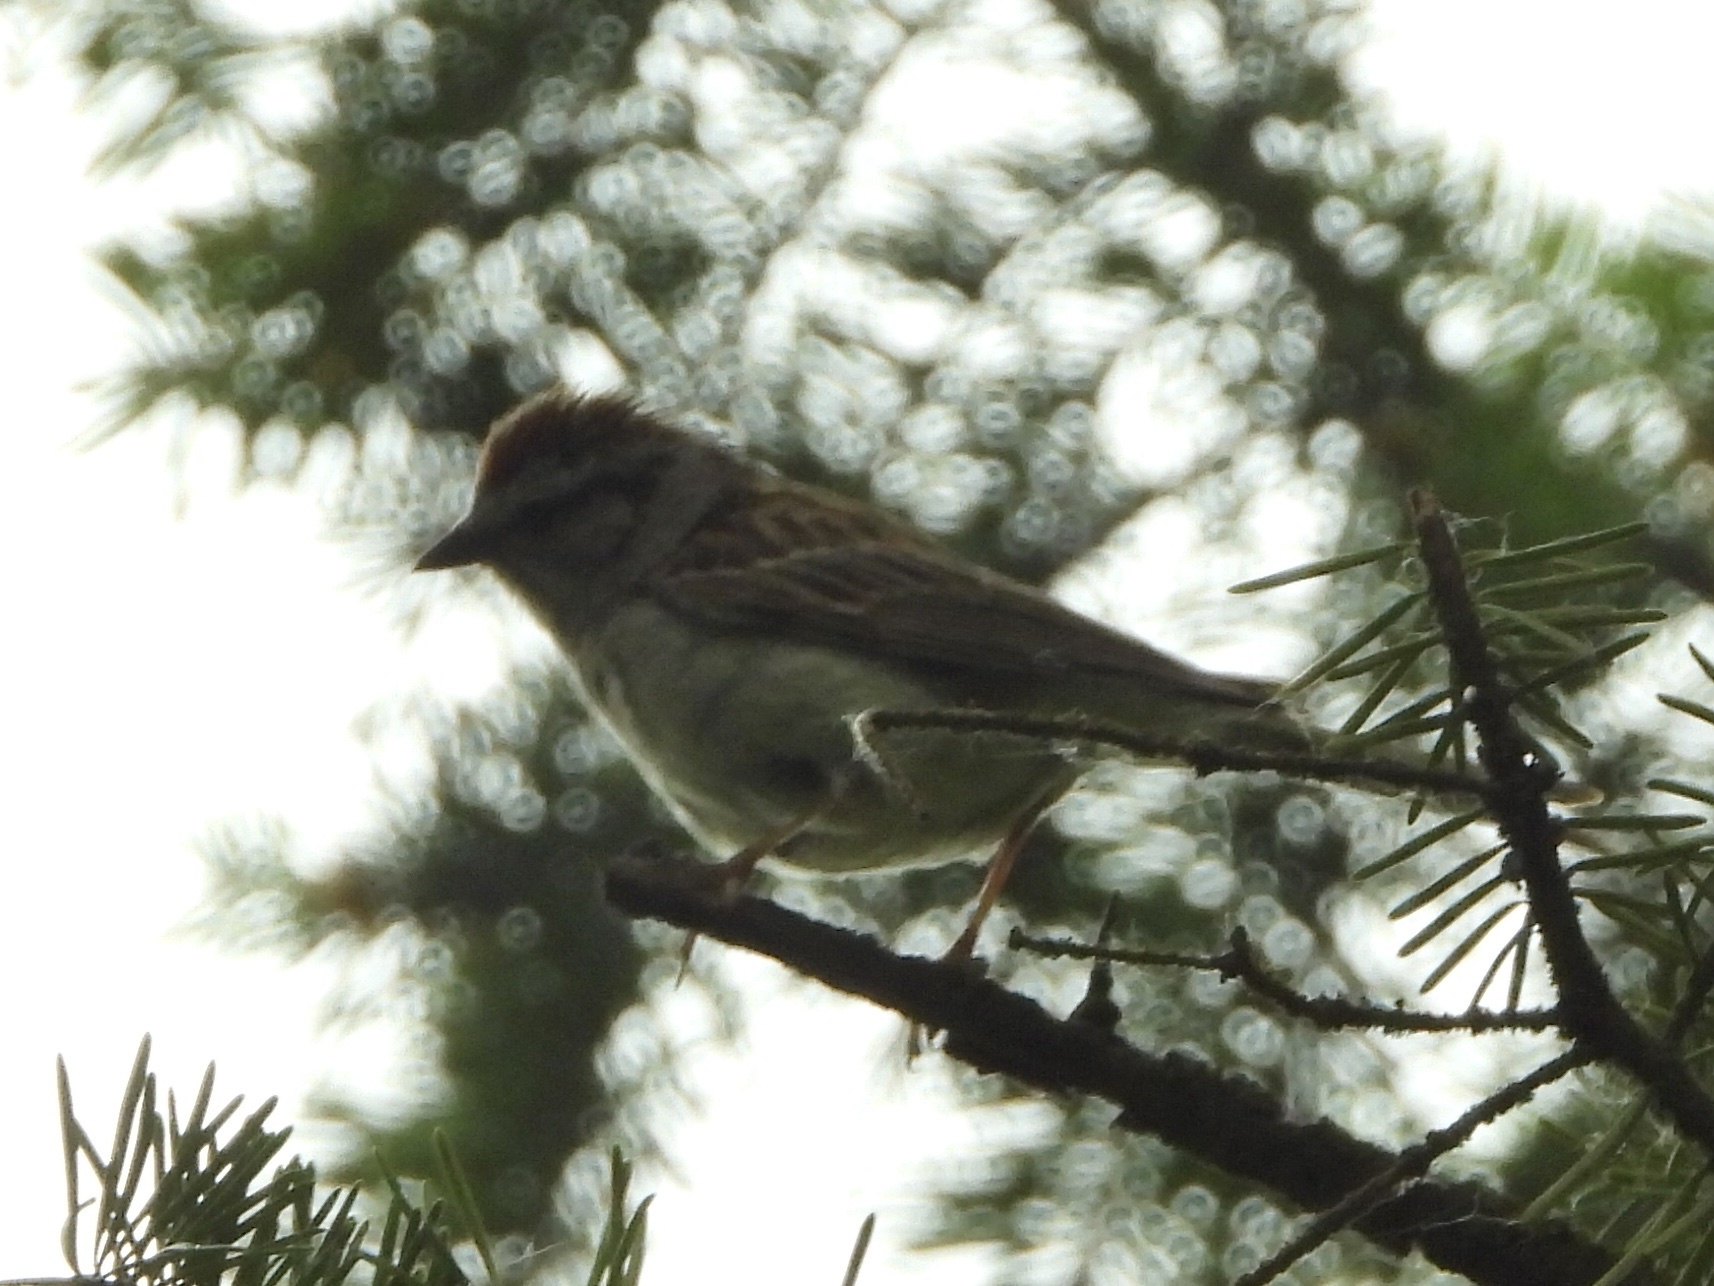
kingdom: Animalia
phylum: Chordata
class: Aves
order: Passeriformes
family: Passerellidae
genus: Spizella
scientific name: Spizella passerina
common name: Chipping sparrow
